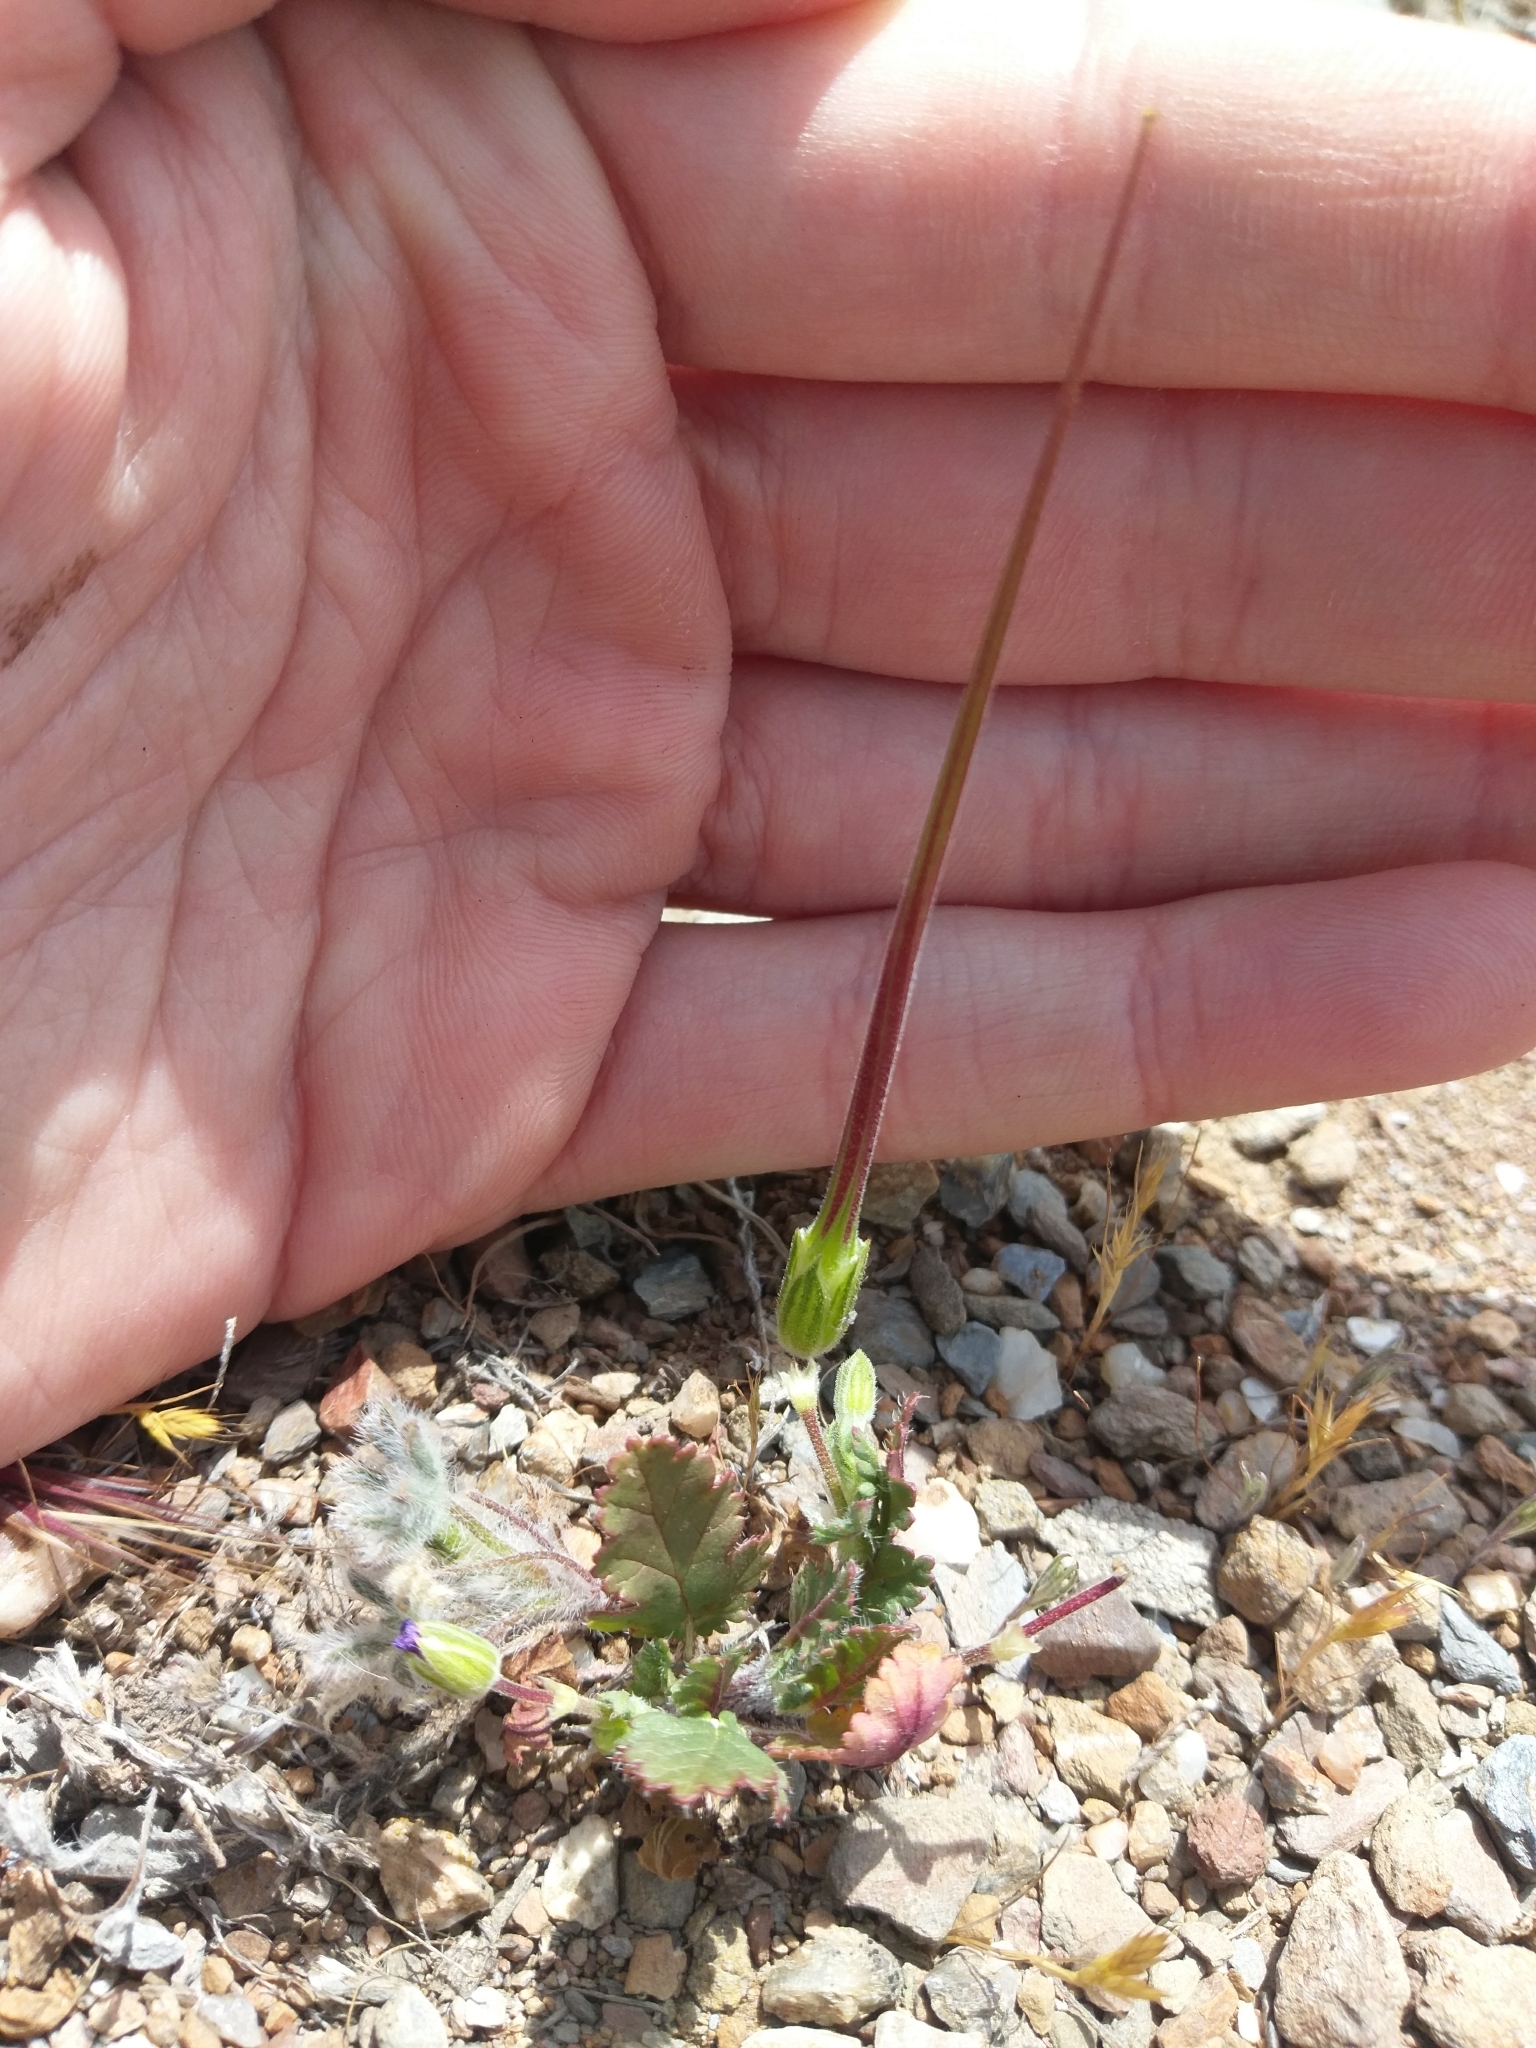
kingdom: Plantae
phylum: Tracheophyta
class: Magnoliopsida
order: Geraniales
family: Geraniaceae
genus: Erodium
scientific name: Erodium botrys
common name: Mediterranean stork's-bill
